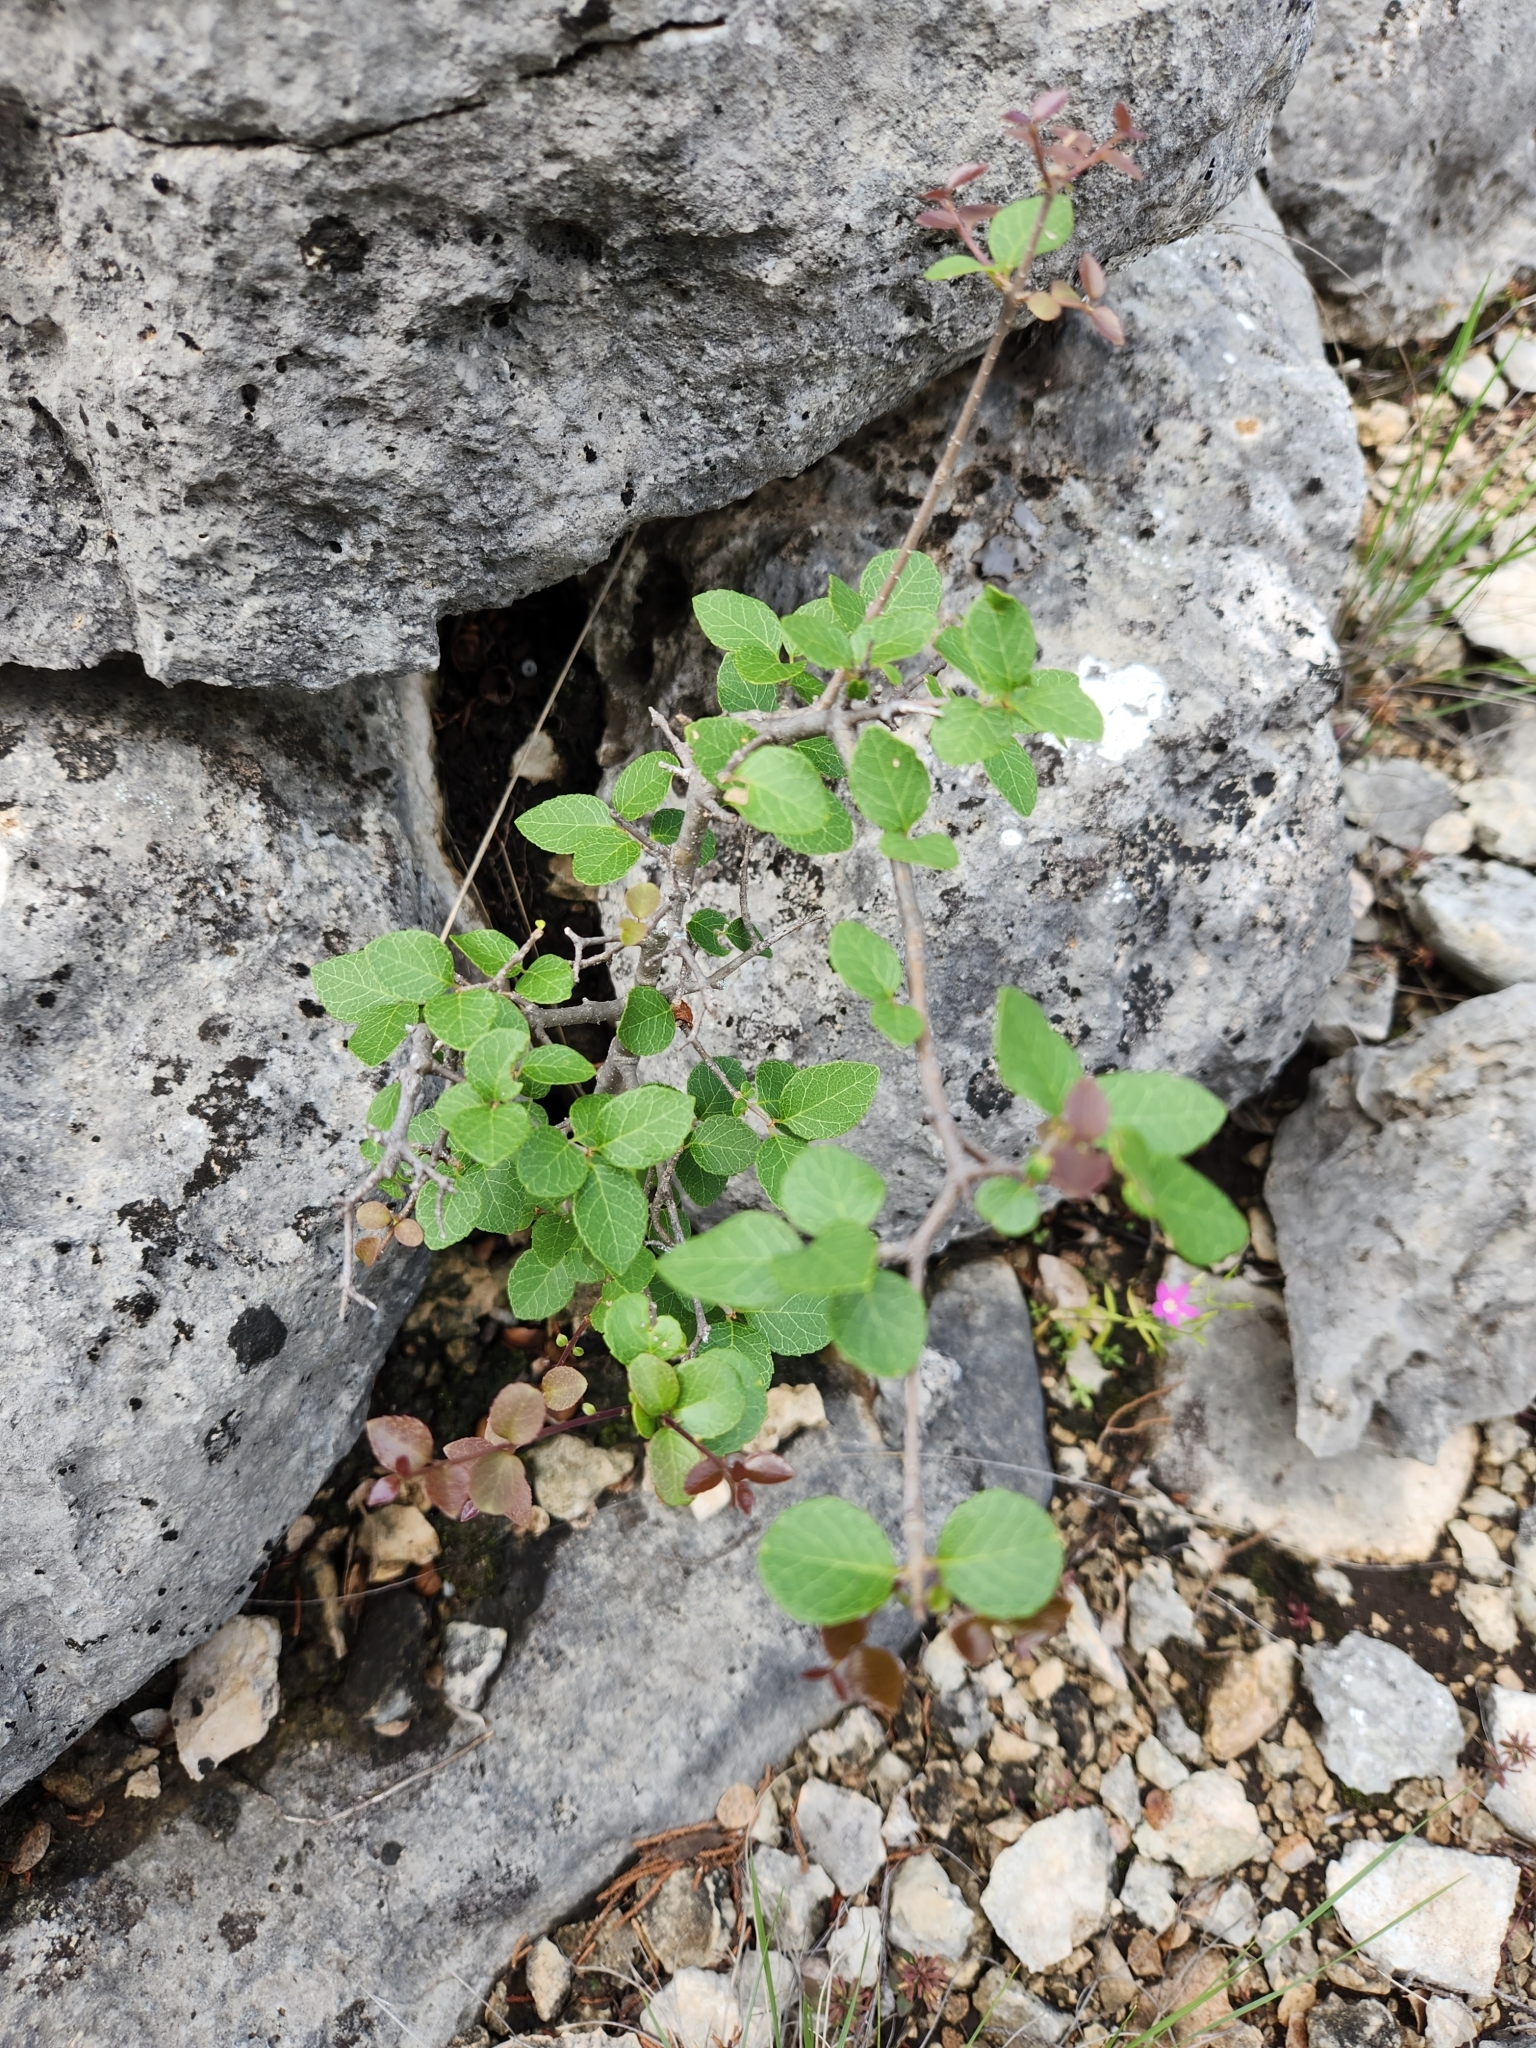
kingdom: Plantae
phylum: Tracheophyta
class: Magnoliopsida
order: Lamiales
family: Oleaceae
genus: Forestiera
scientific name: Forestiera reticulata
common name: Netleaf swamp-privet
